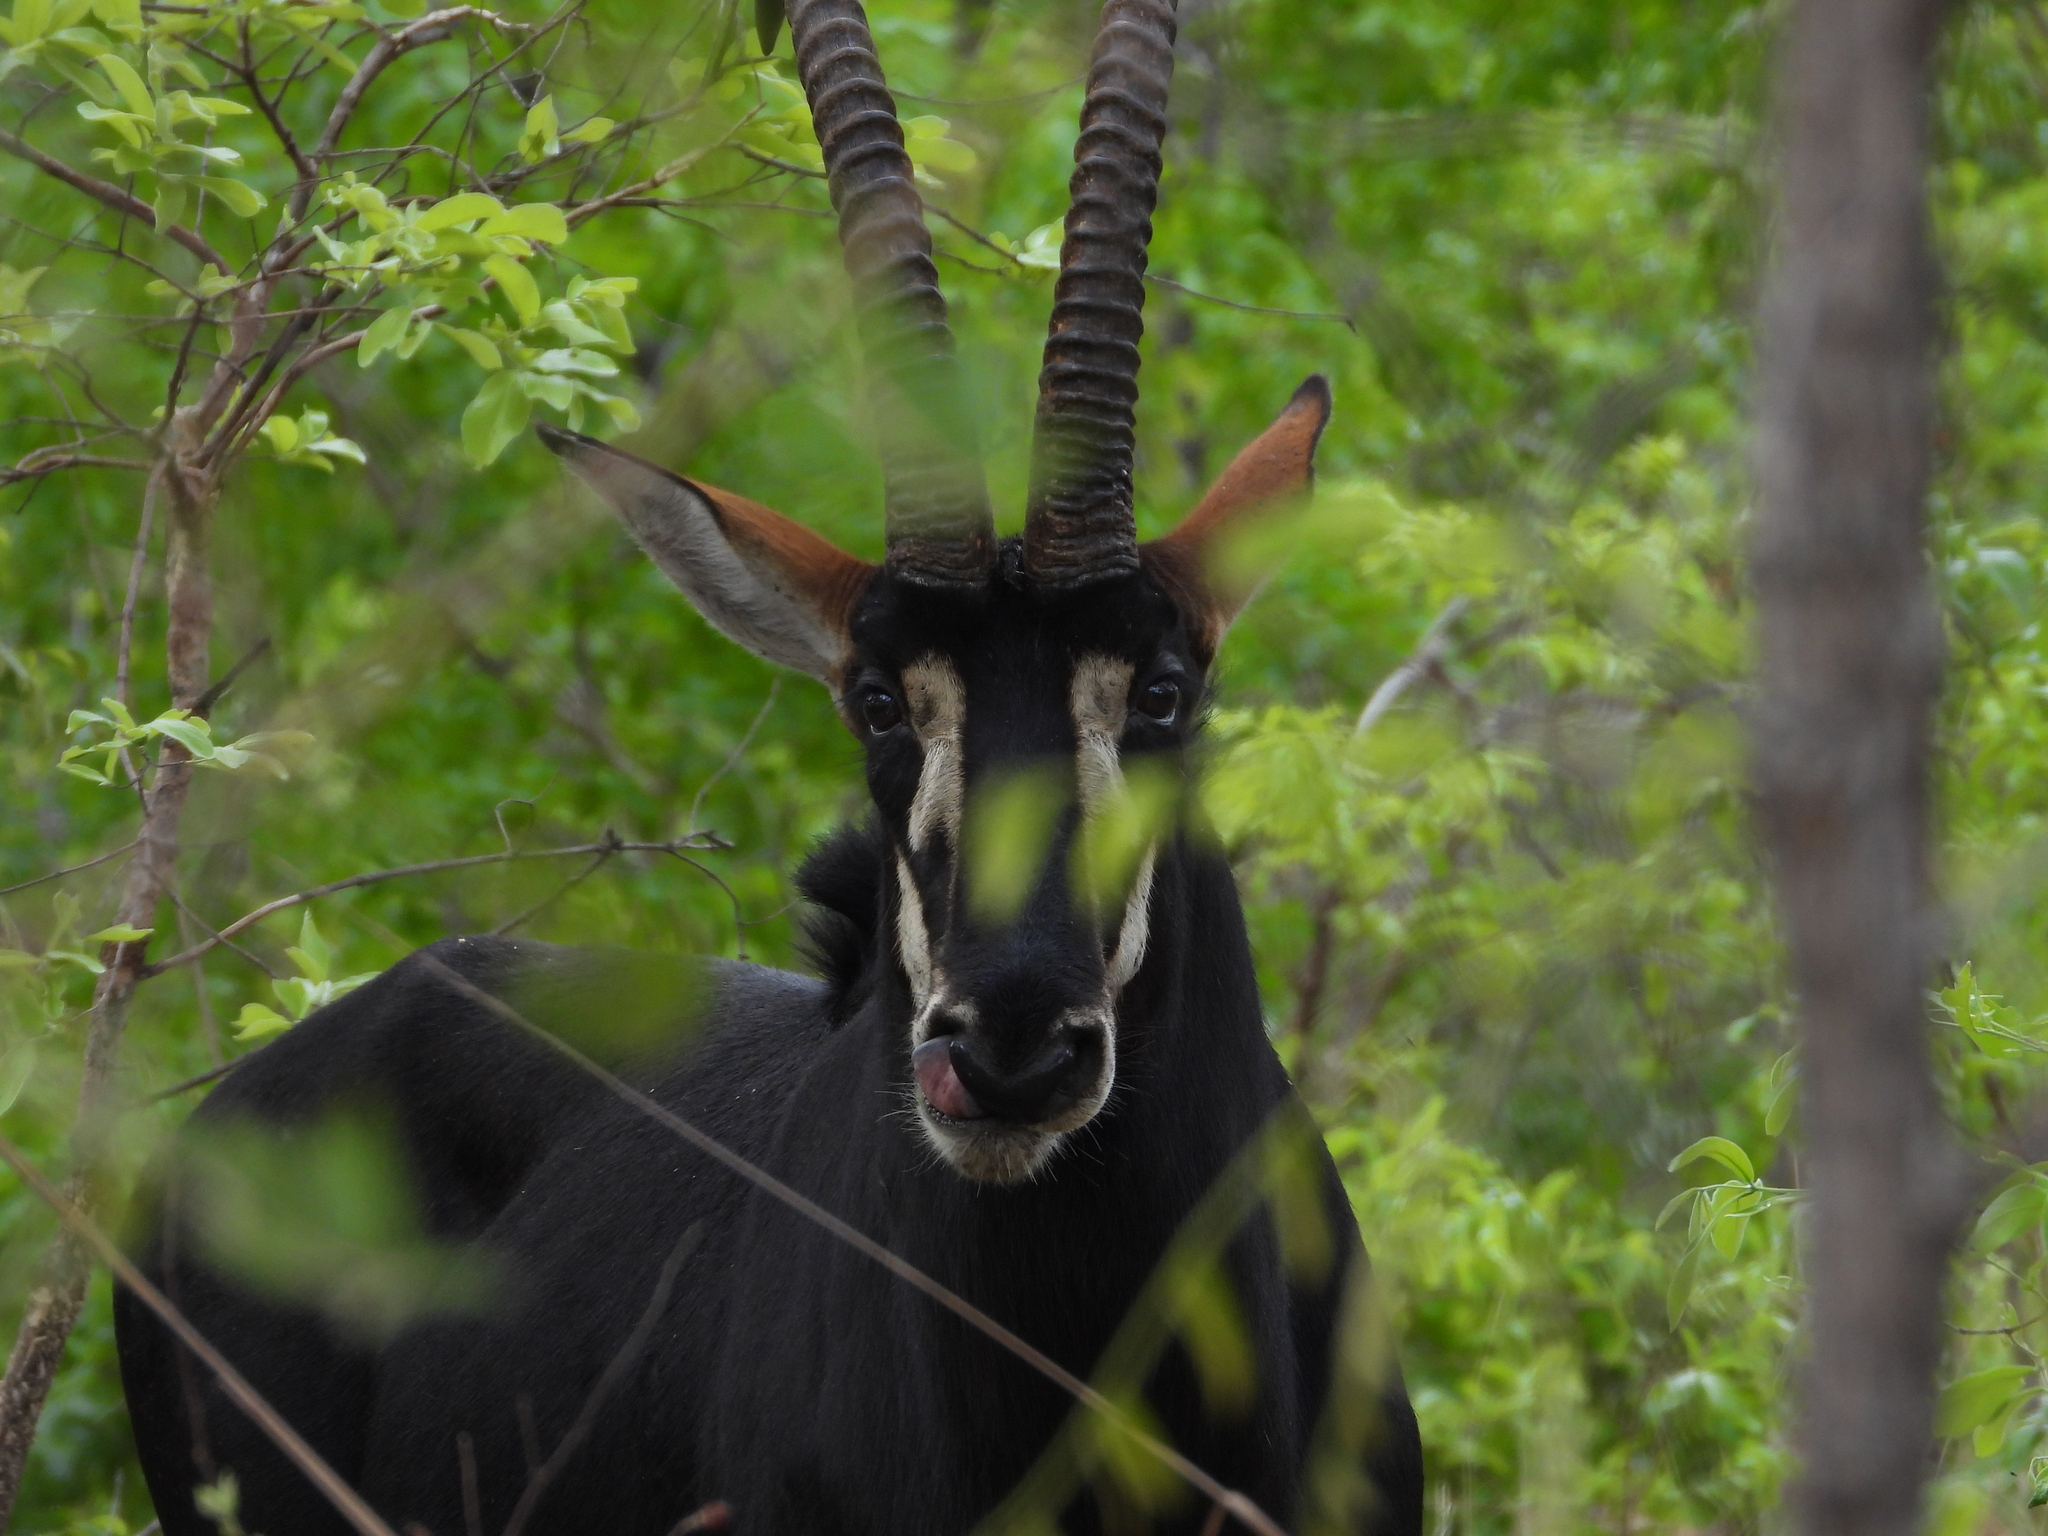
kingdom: Animalia
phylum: Chordata
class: Mammalia
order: Artiodactyla
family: Bovidae
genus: Hippotragus
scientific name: Hippotragus niger
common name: Sable antelope
